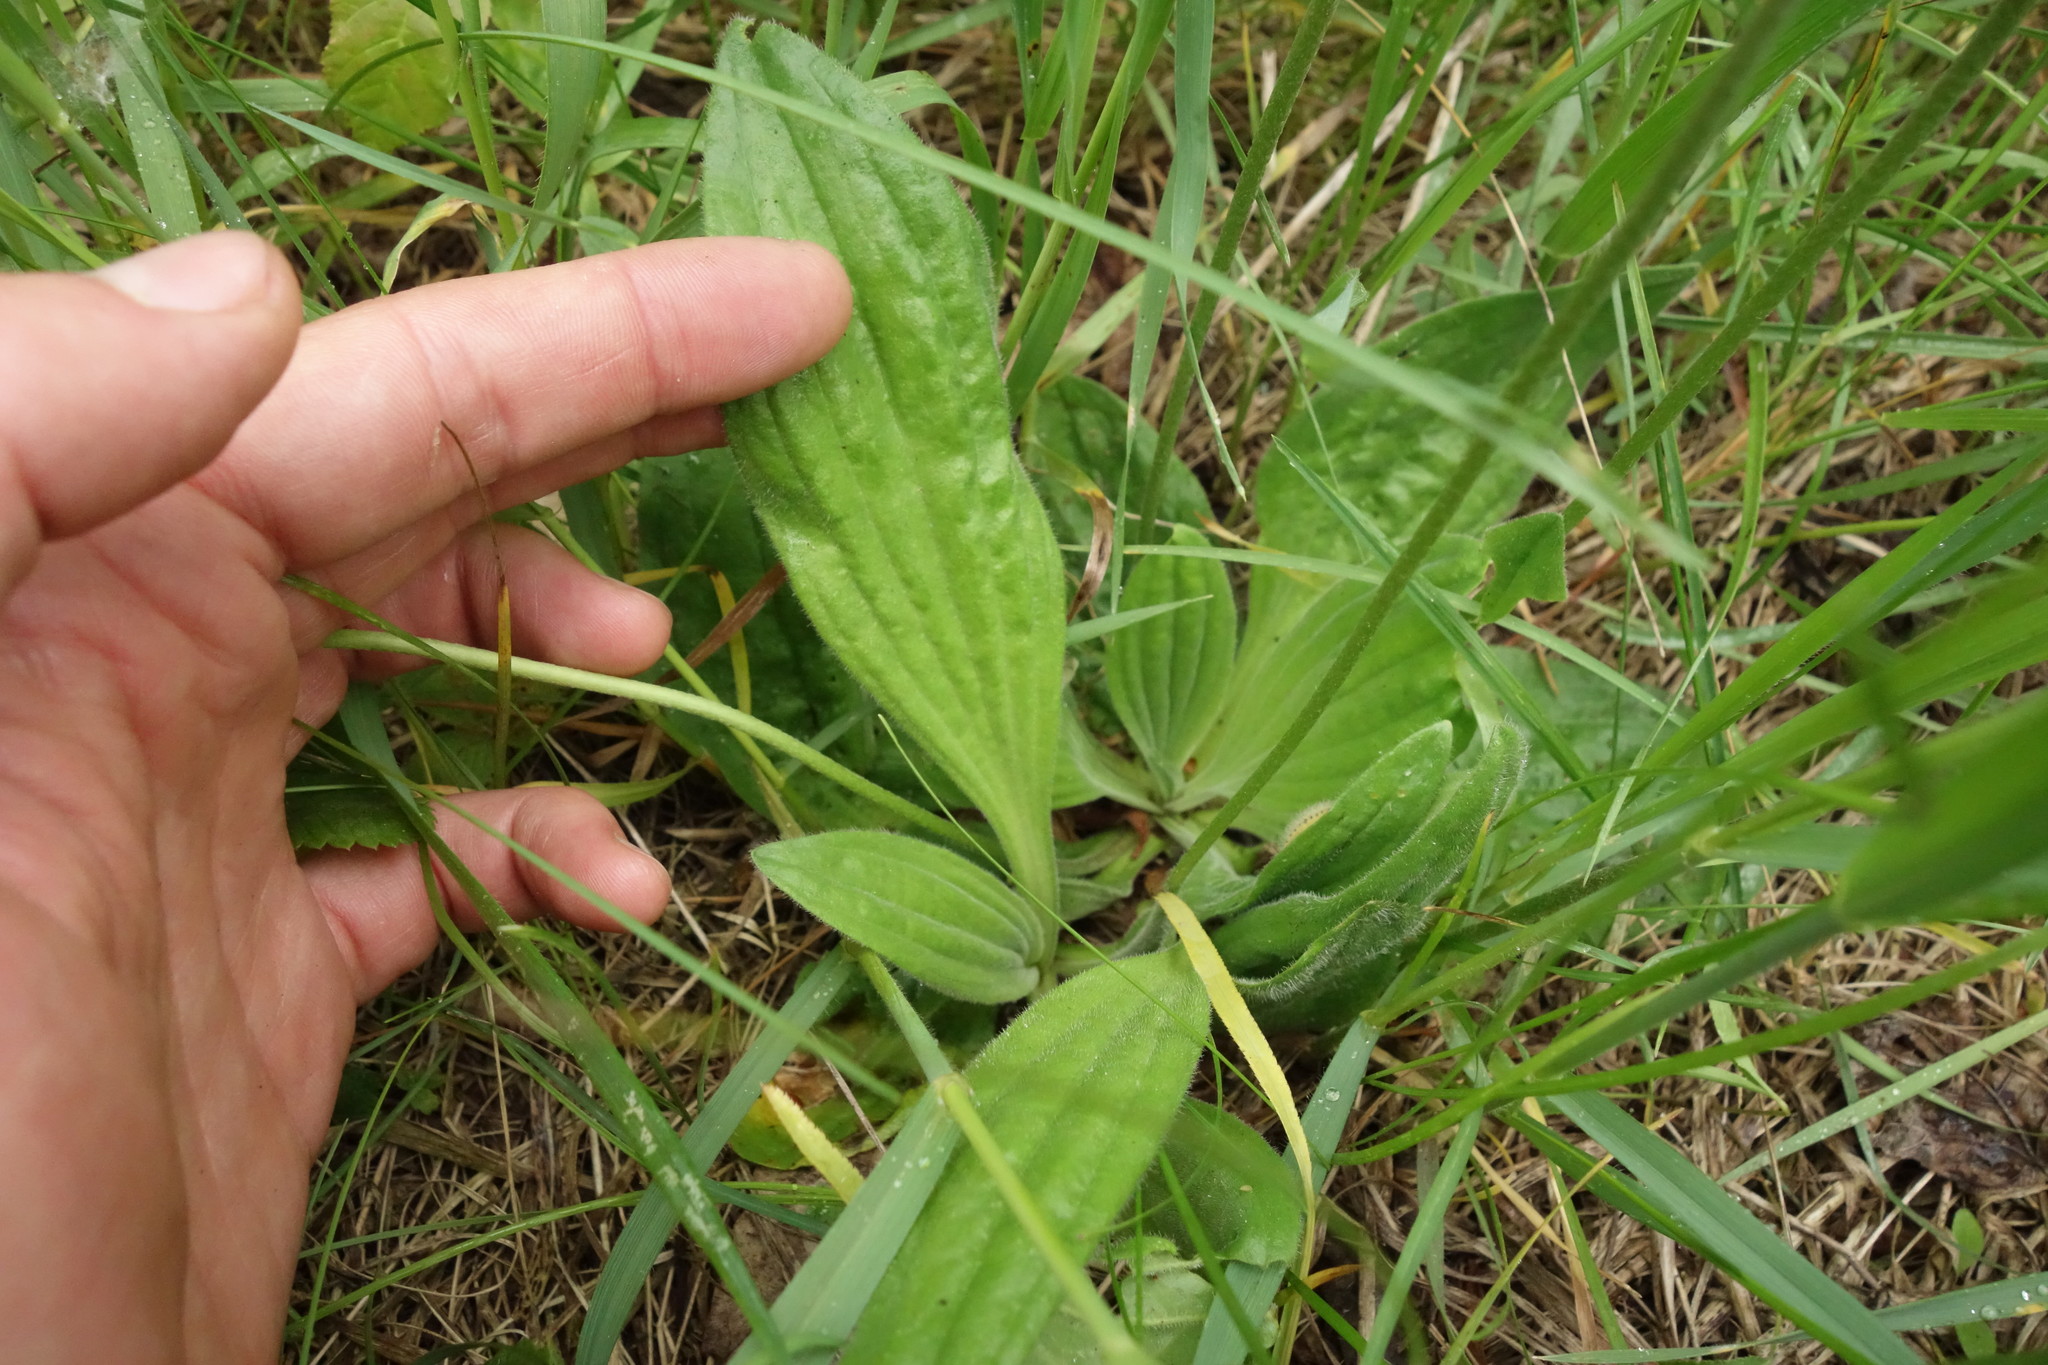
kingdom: Plantae
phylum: Tracheophyta
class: Magnoliopsida
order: Lamiales
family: Plantaginaceae
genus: Plantago
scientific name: Plantago media
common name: Hoary plantain
